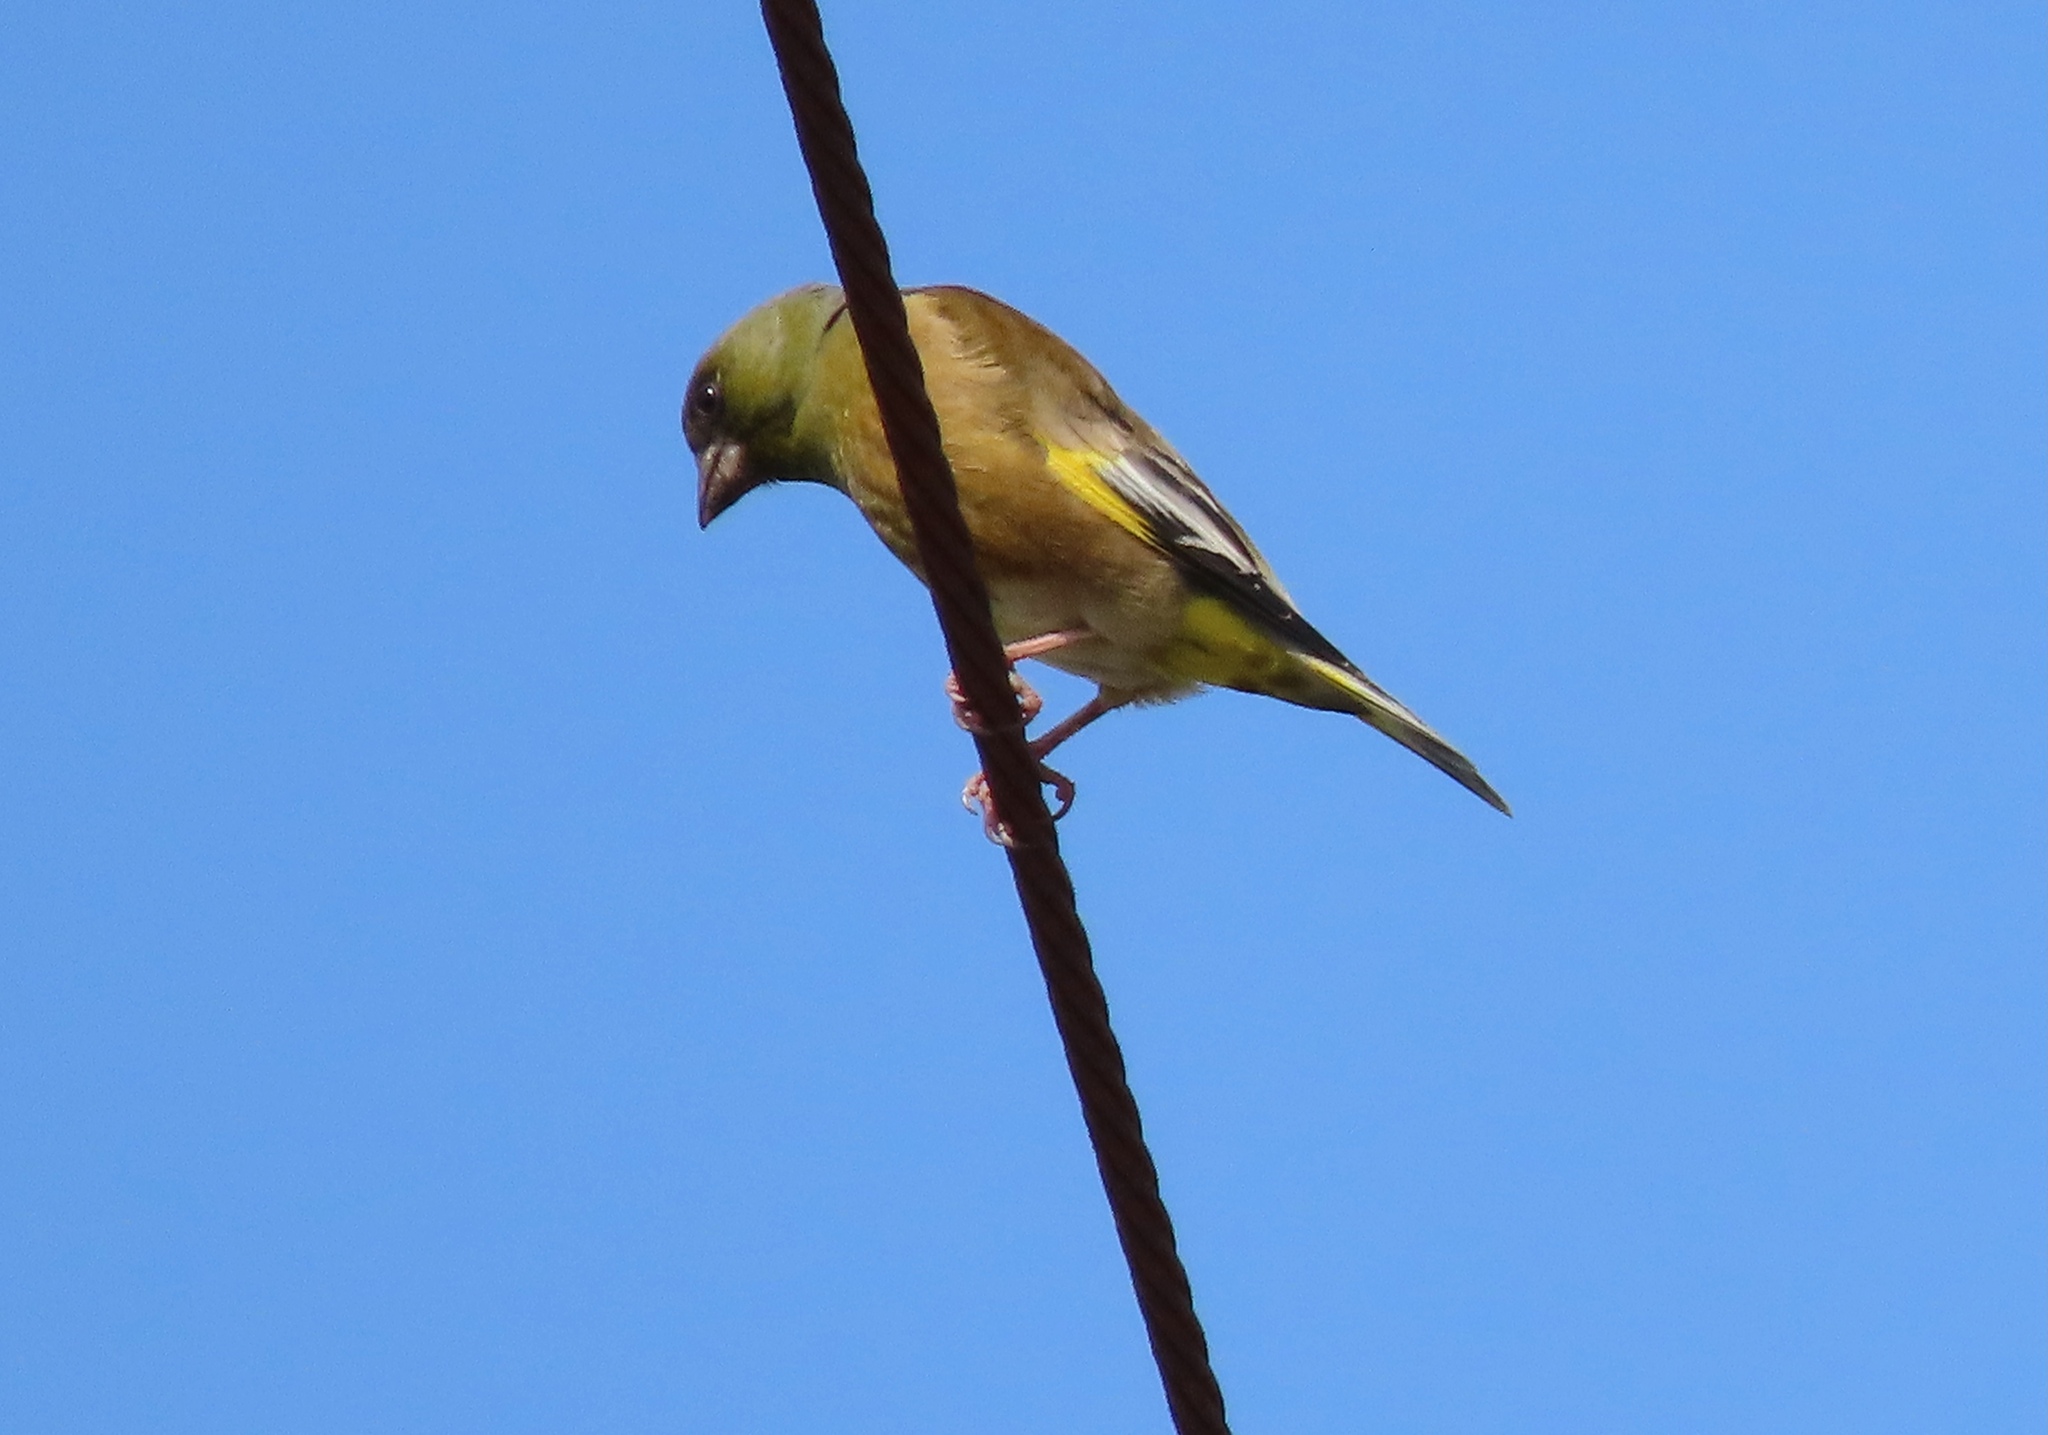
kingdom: Plantae
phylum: Tracheophyta
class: Liliopsida
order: Poales
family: Poaceae
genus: Chloris
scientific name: Chloris sinica
